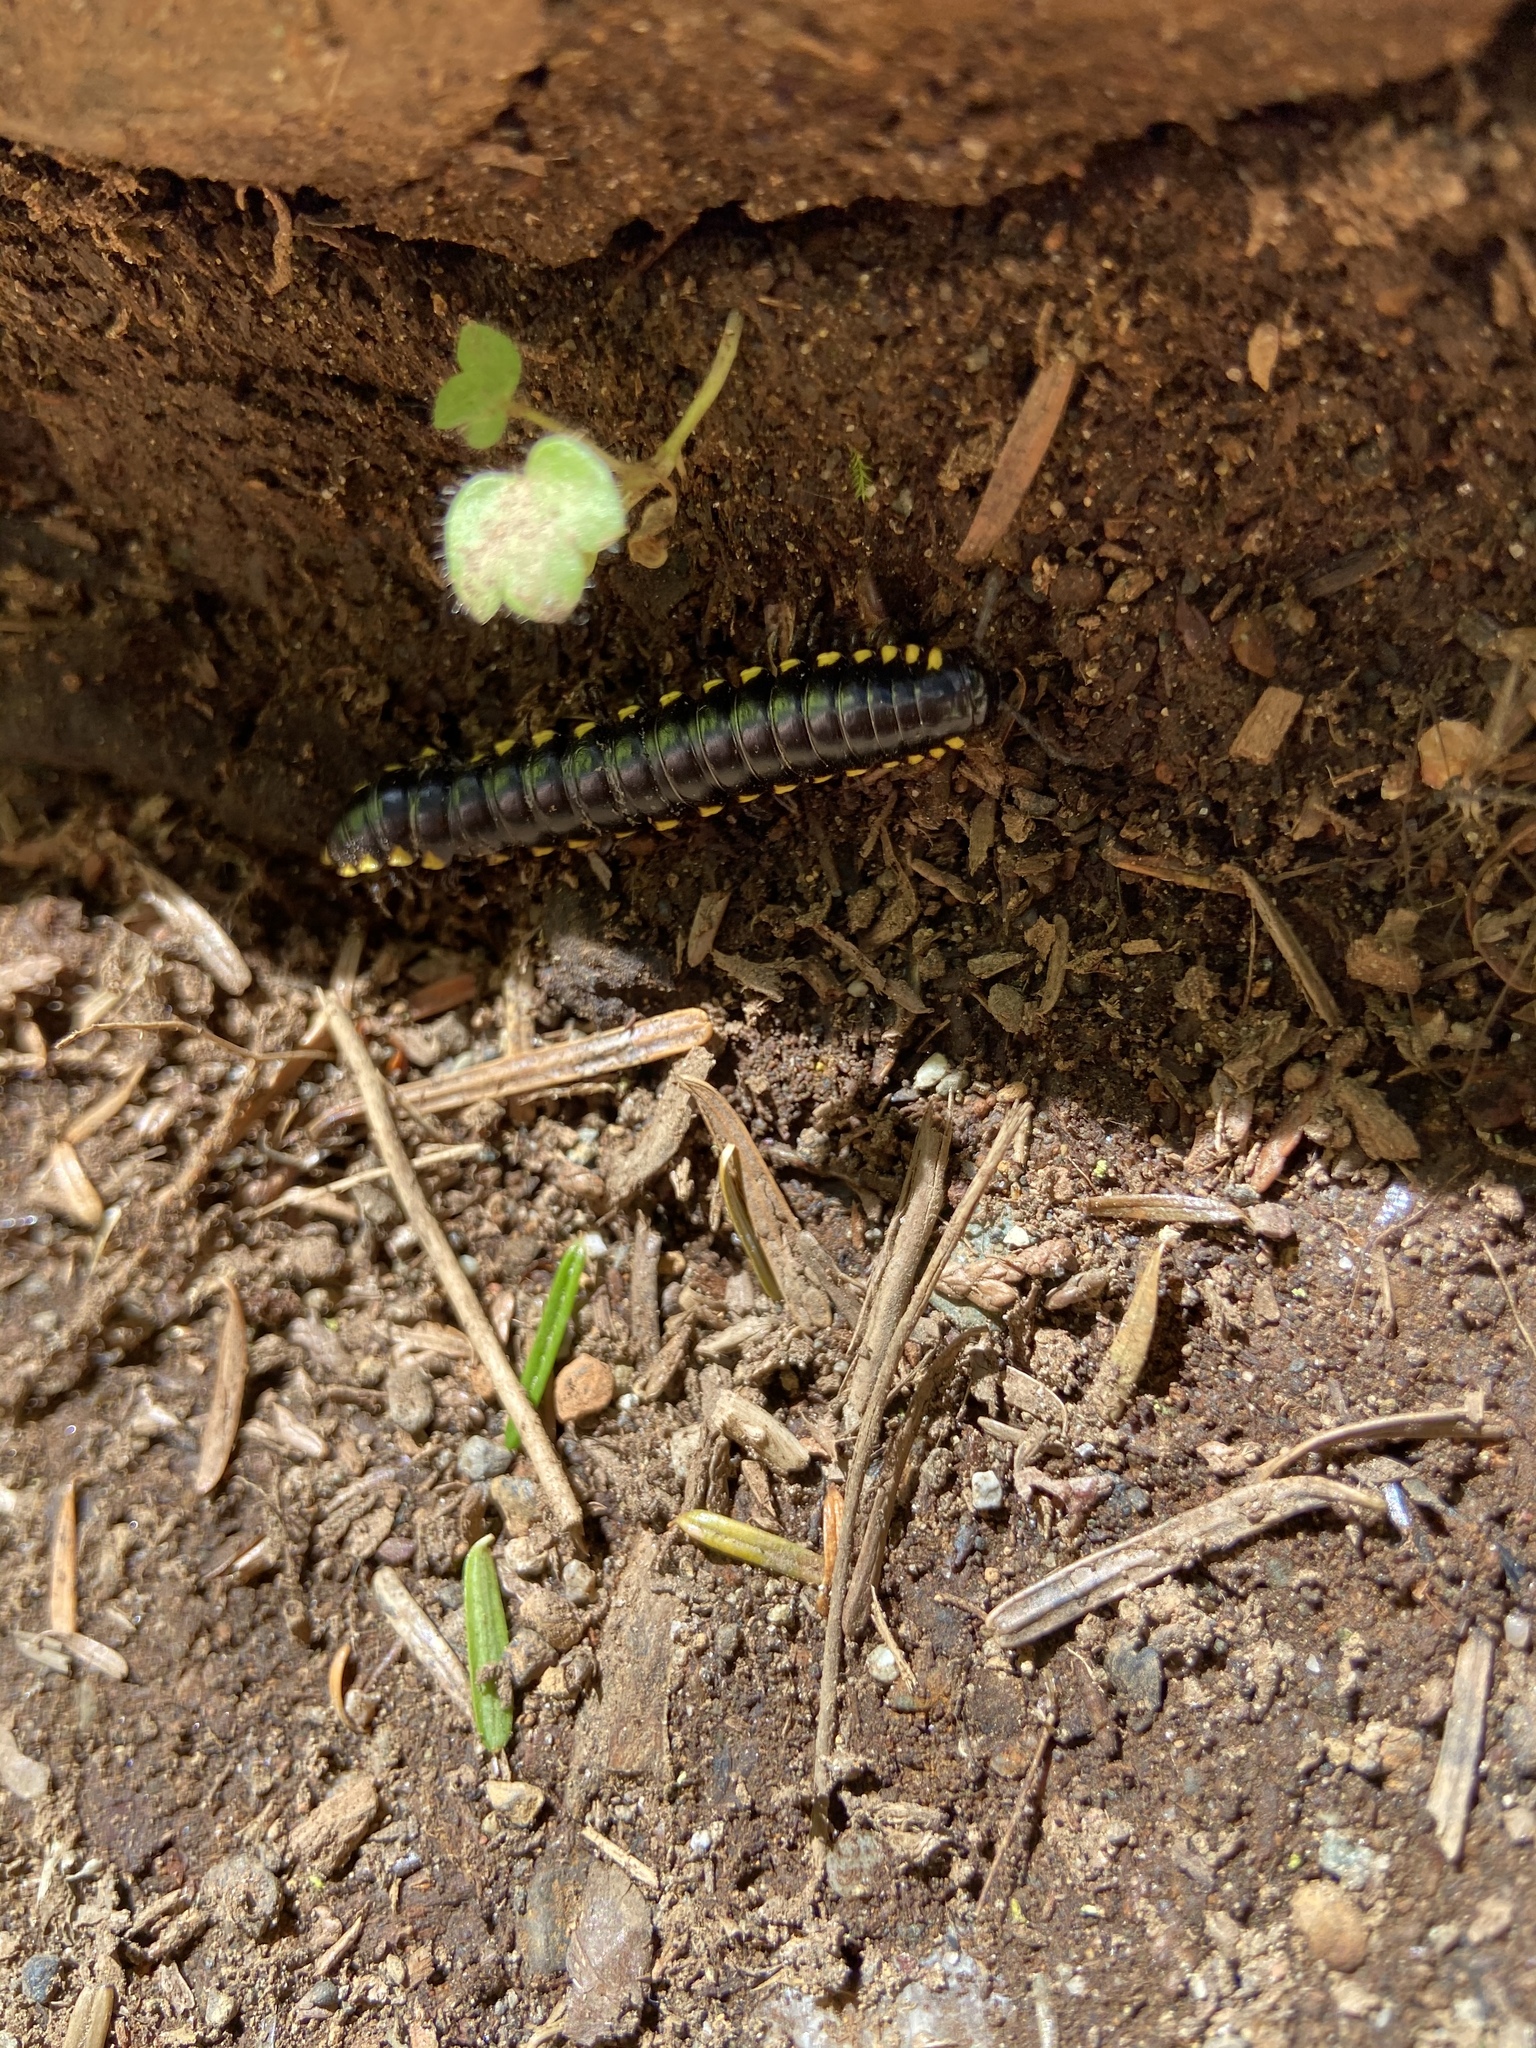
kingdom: Animalia
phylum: Arthropoda
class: Diplopoda
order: Polydesmida
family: Xystodesmidae
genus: Harpaphe
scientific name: Harpaphe haydeniana
